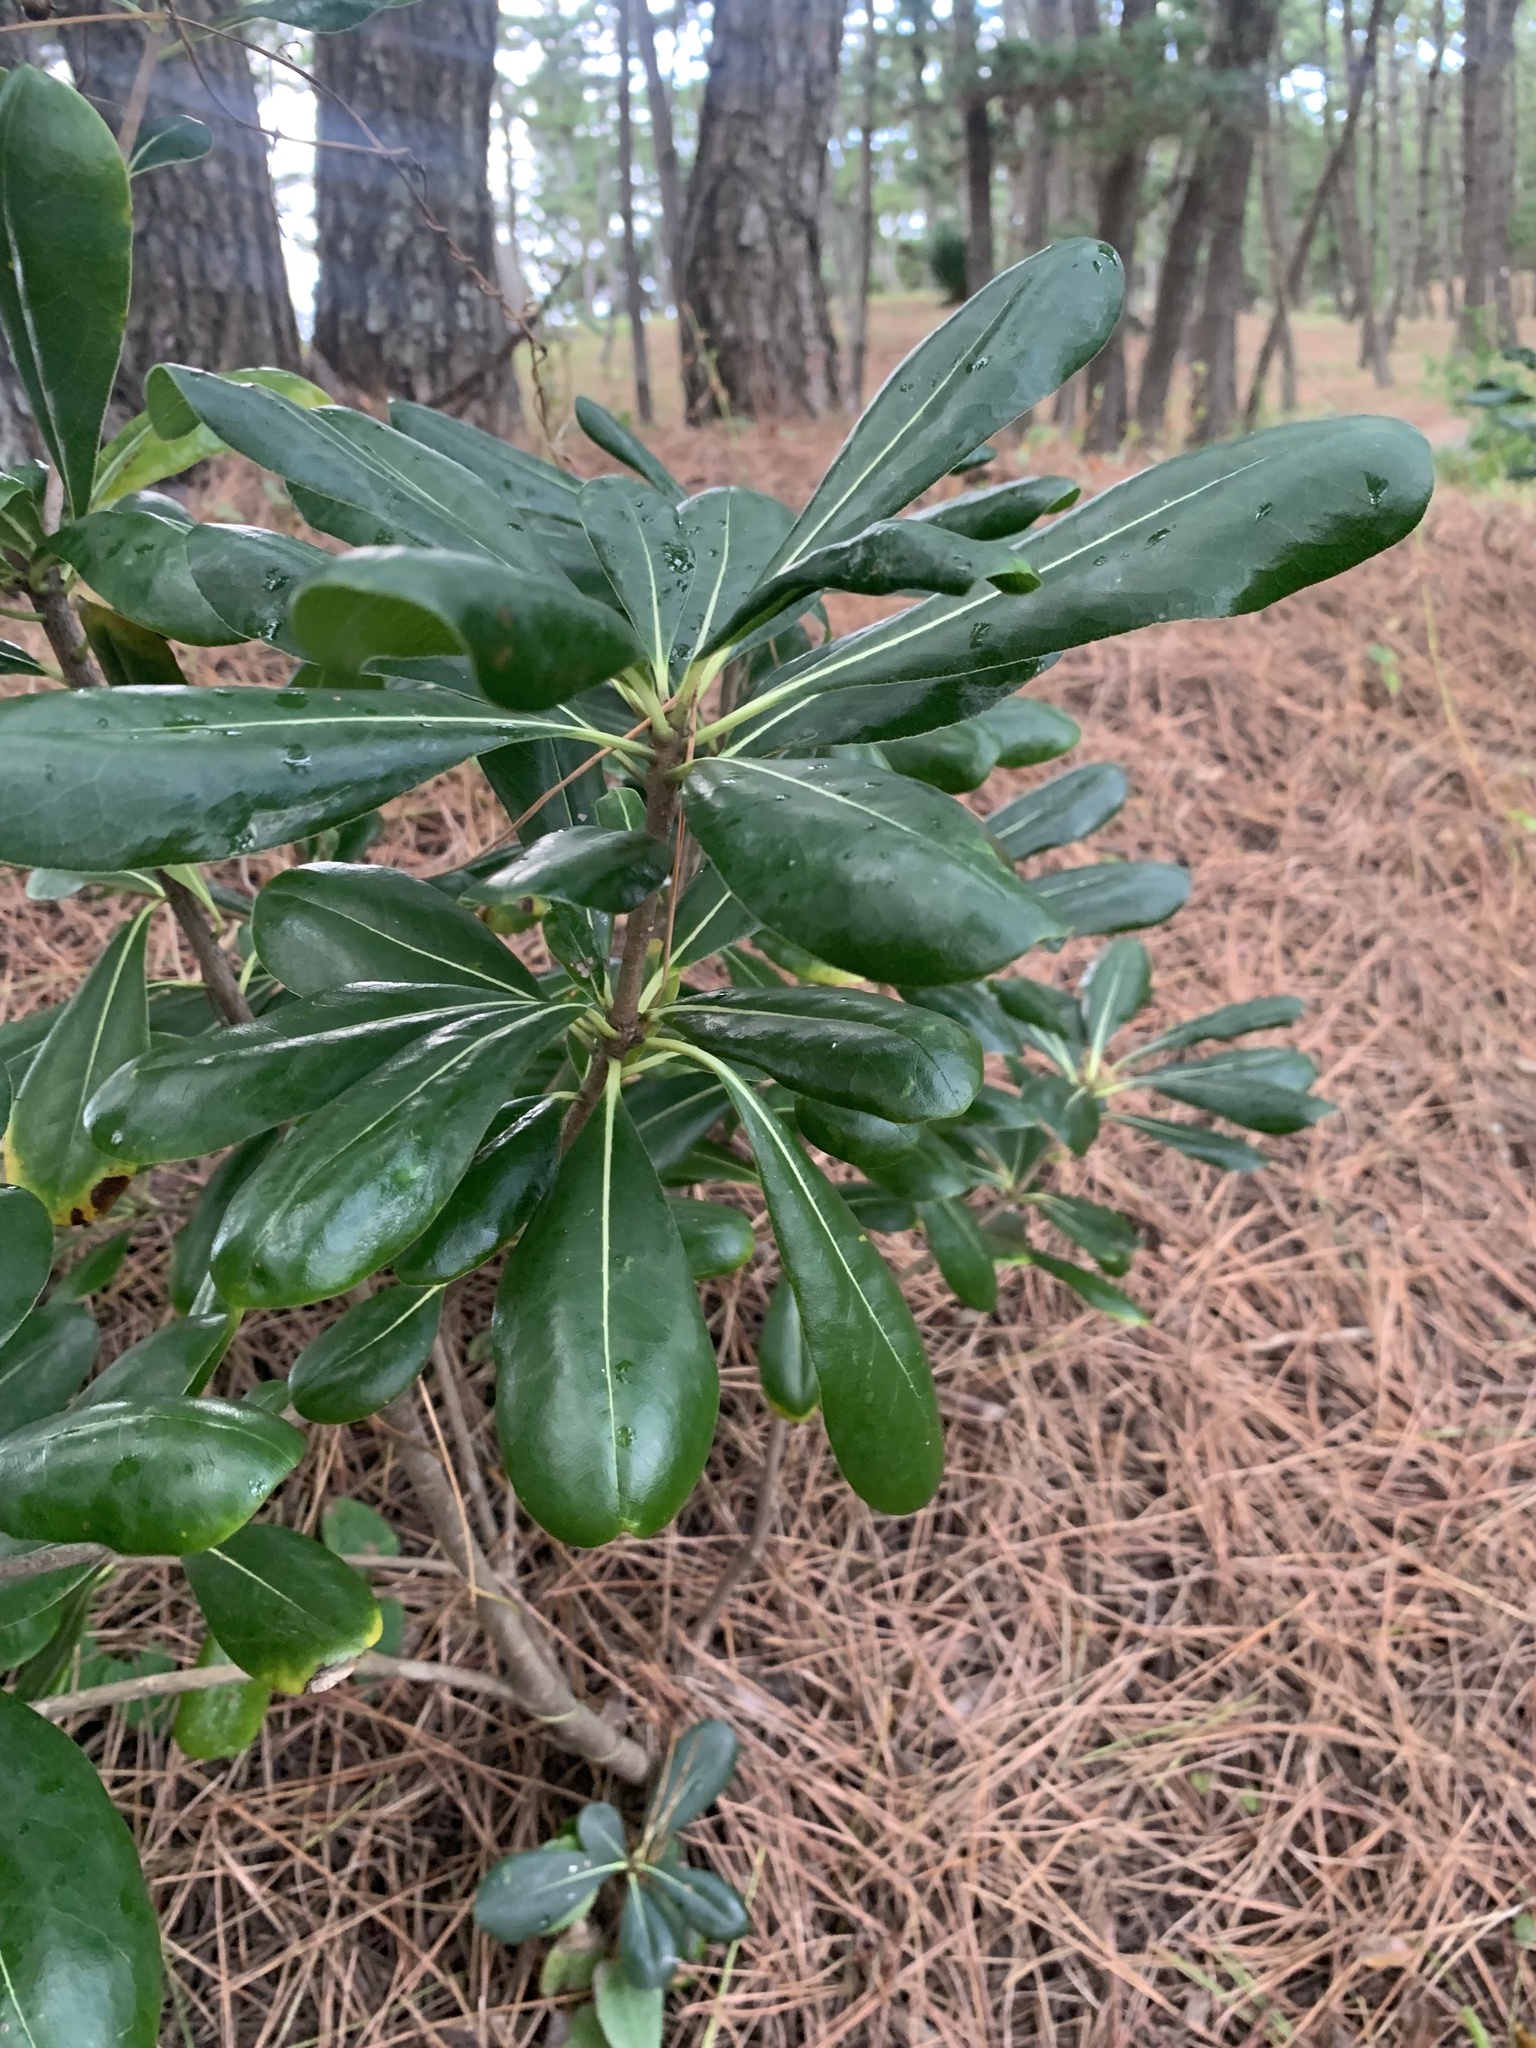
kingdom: Plantae
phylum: Tracheophyta
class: Magnoliopsida
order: Apiales
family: Pittosporaceae
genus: Pittosporum
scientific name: Pittosporum tobira
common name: Japanese cheesewood
